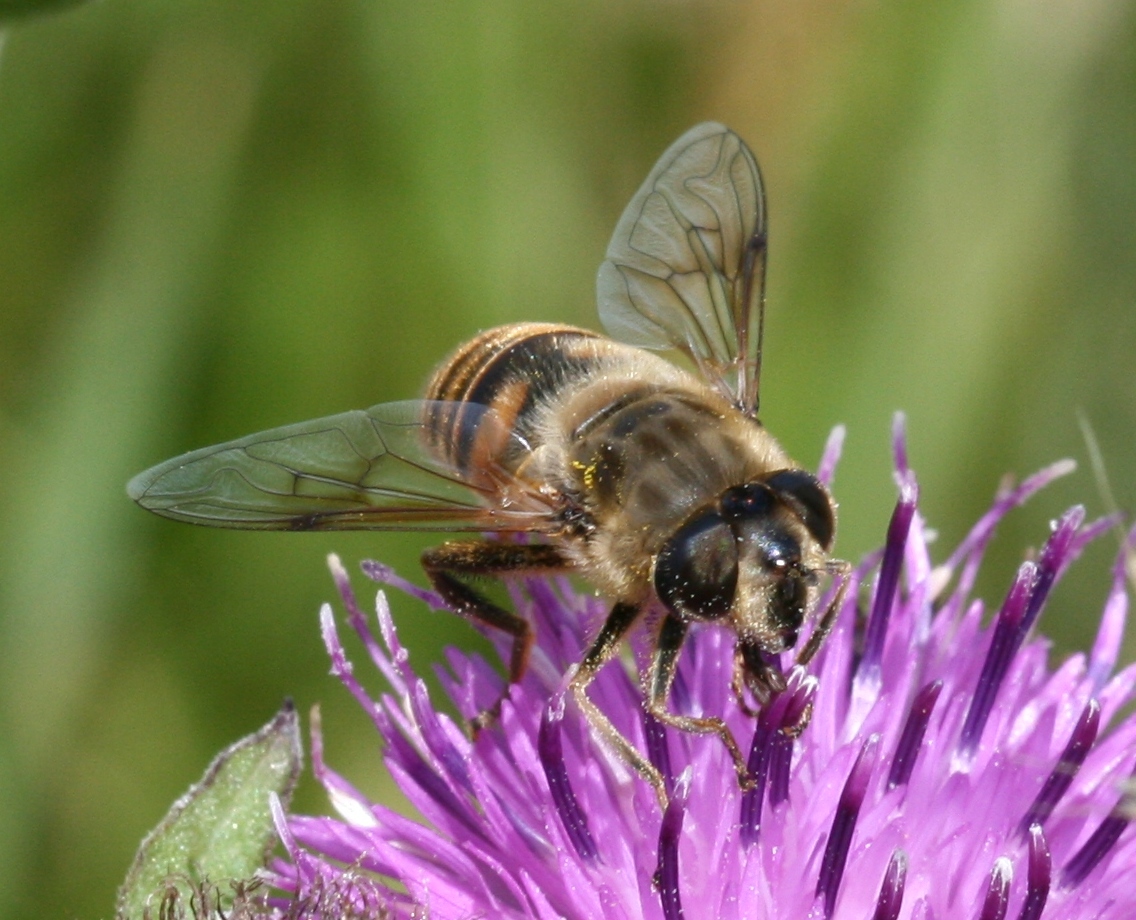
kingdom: Animalia
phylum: Arthropoda
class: Insecta
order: Diptera
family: Syrphidae
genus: Eristalis
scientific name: Eristalis tenax
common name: Drone fly
